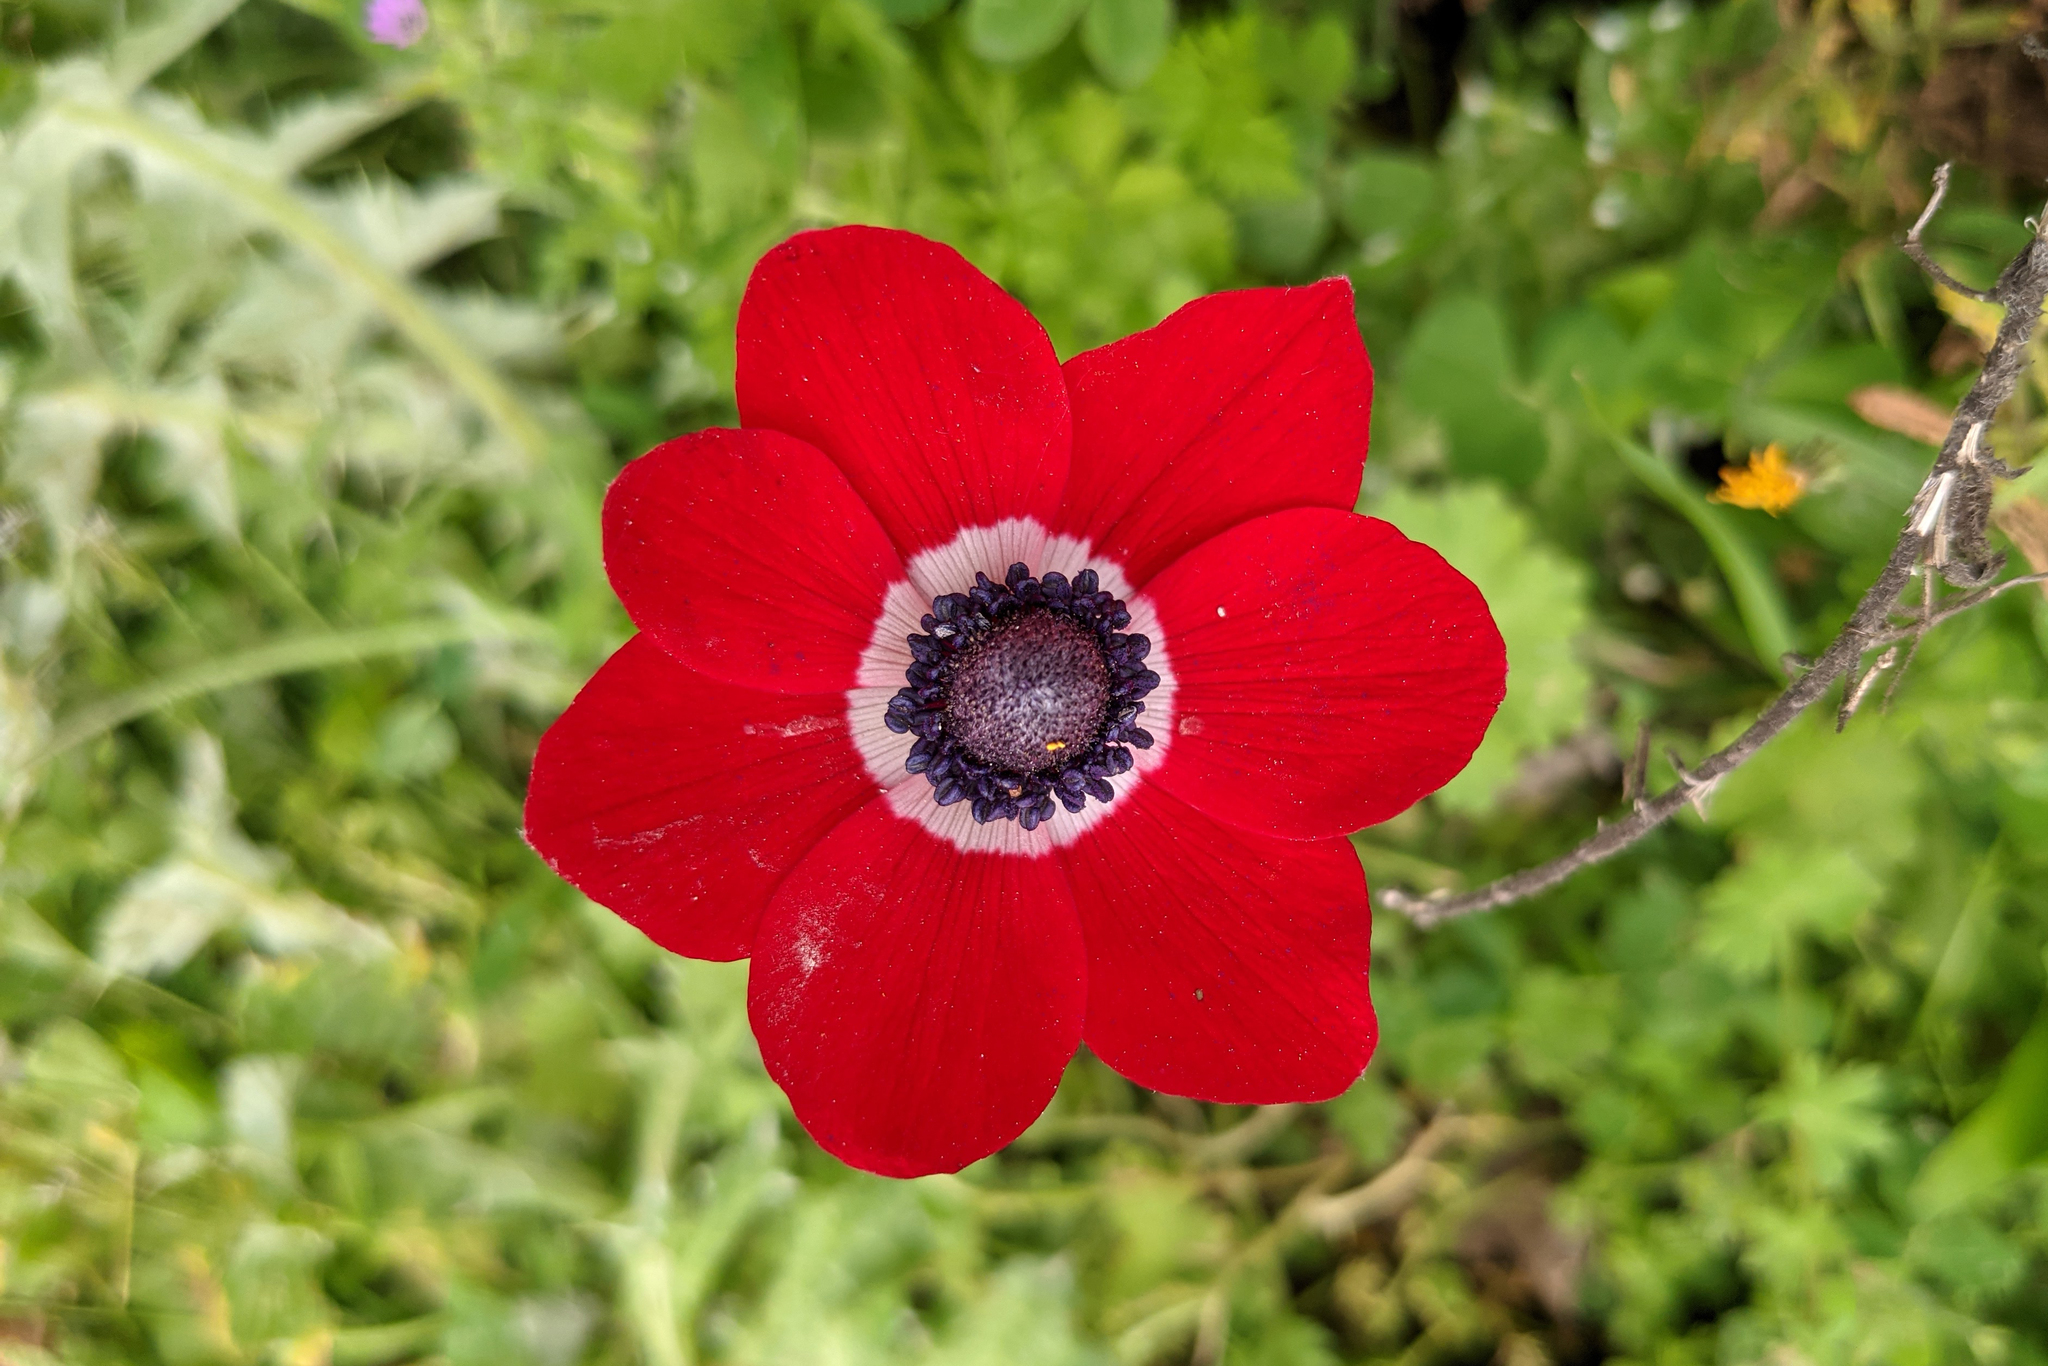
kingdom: Plantae
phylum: Tracheophyta
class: Magnoliopsida
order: Ranunculales
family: Ranunculaceae
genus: Anemone
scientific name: Anemone coronaria
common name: Poppy anemone
